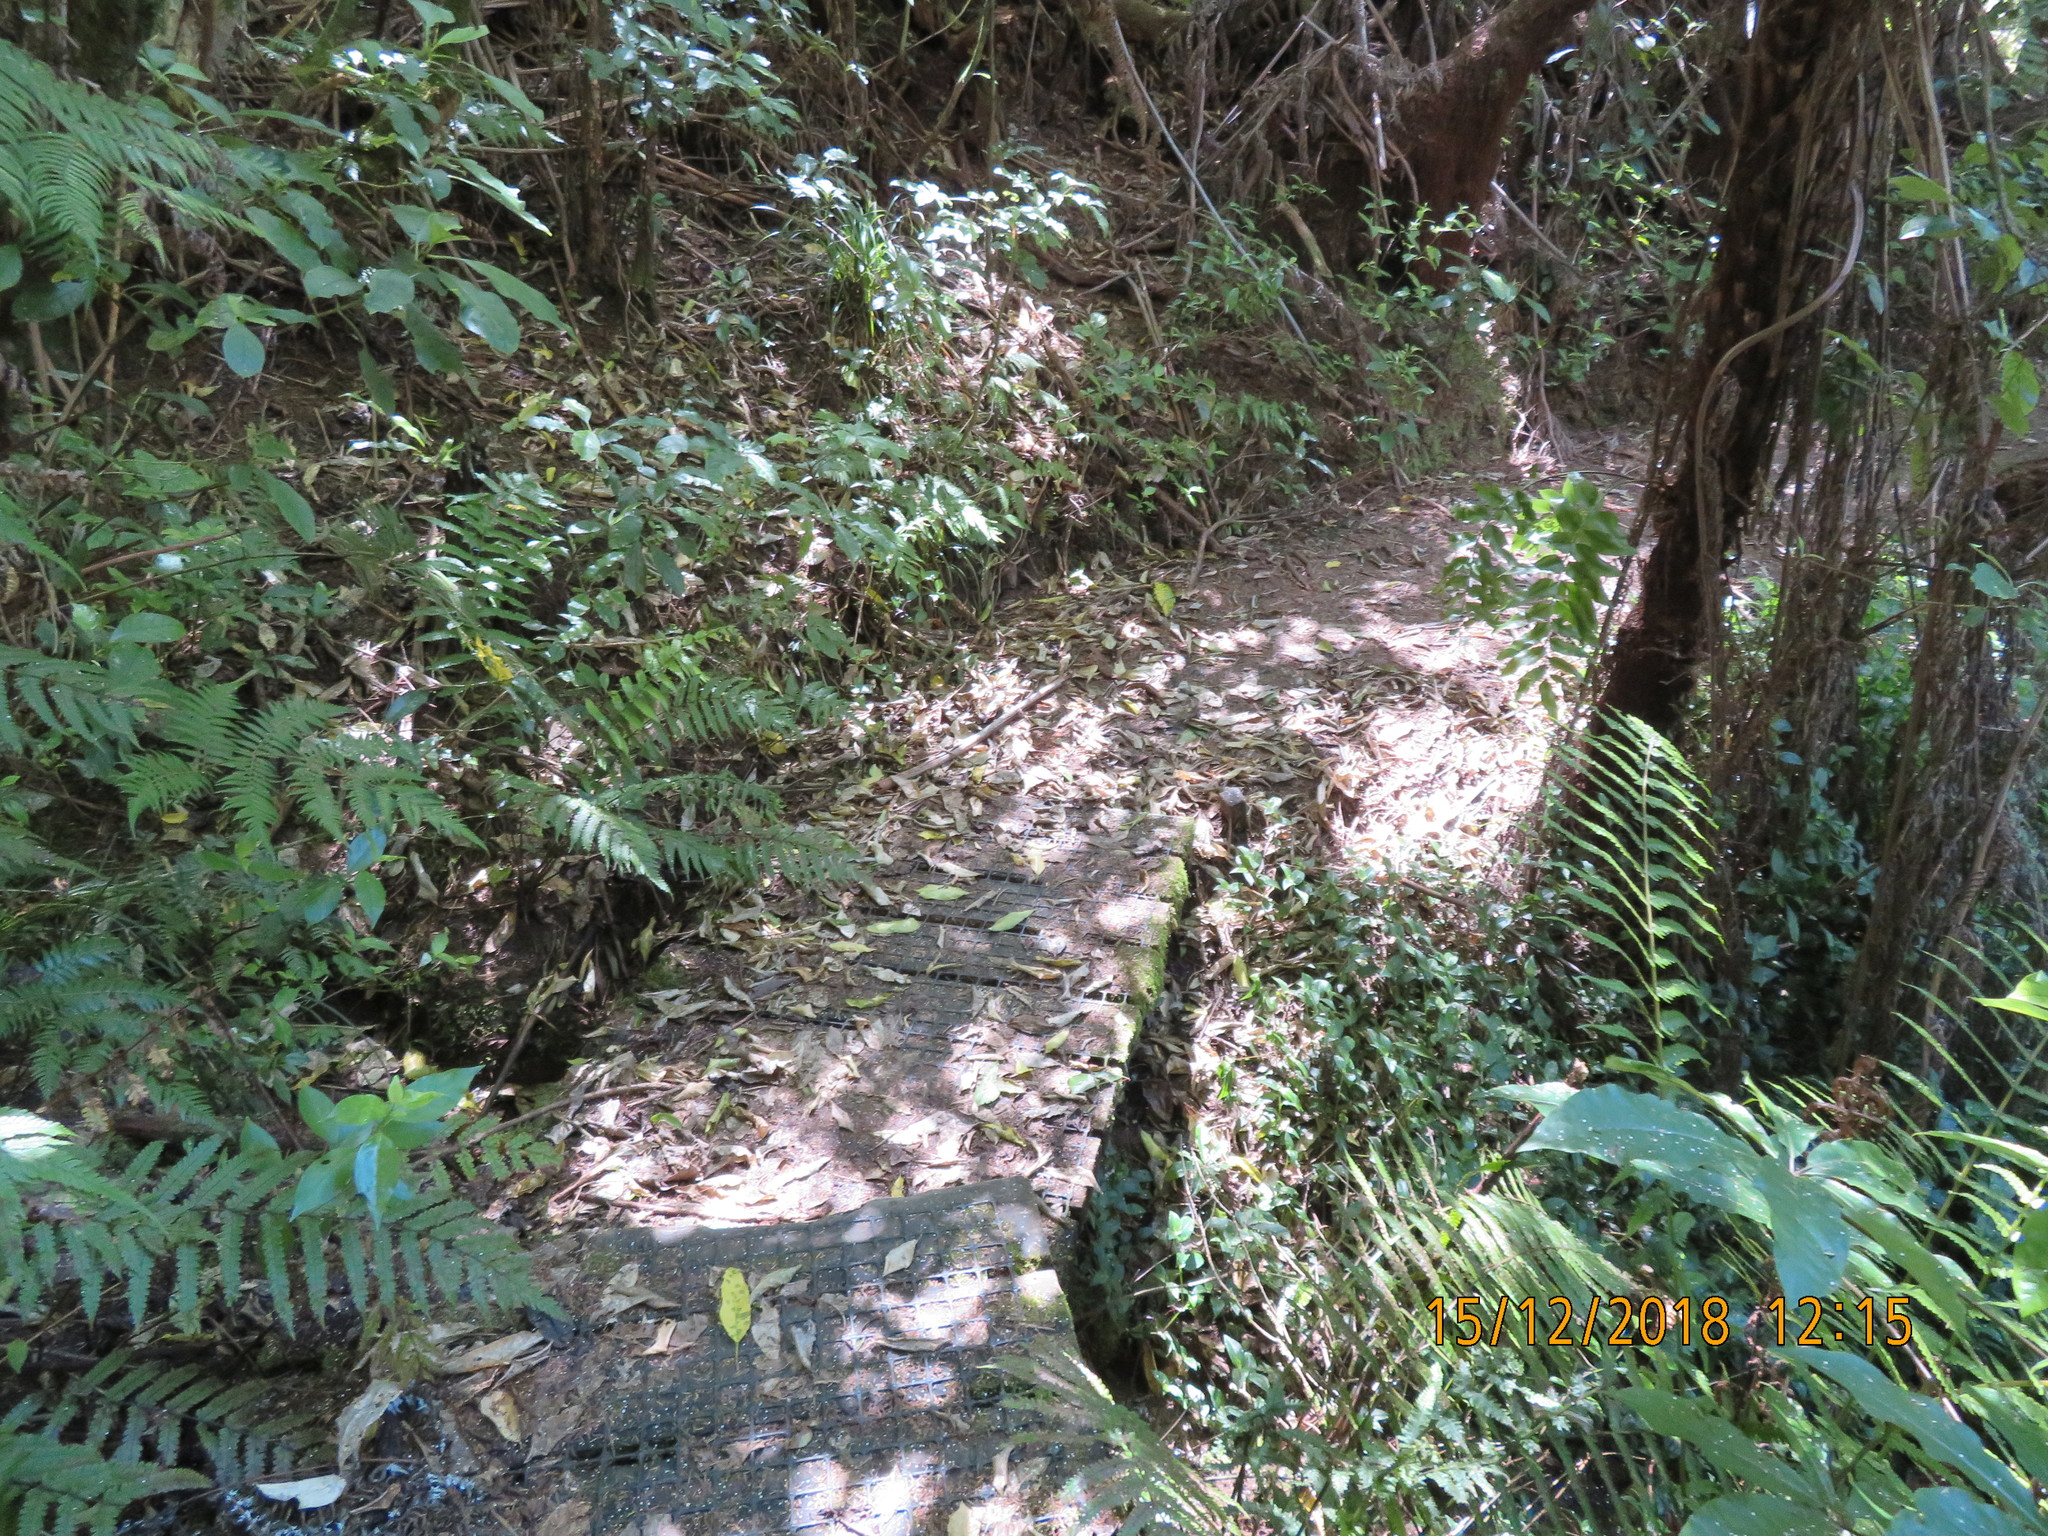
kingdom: Plantae
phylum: Tracheophyta
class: Liliopsida
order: Commelinales
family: Commelinaceae
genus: Tradescantia
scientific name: Tradescantia fluminensis
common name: Wandering-jew
